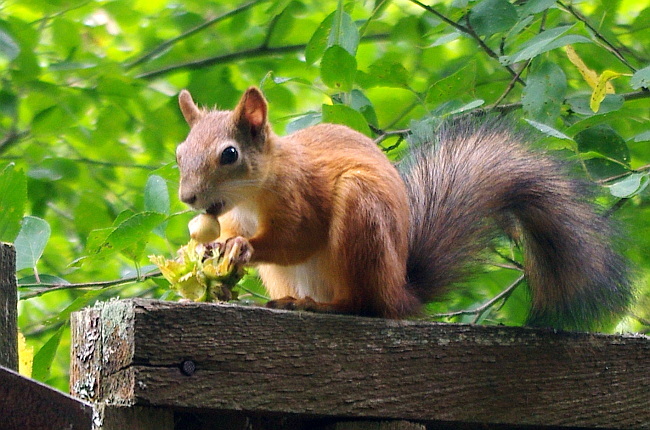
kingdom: Animalia
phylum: Chordata
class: Mammalia
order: Rodentia
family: Sciuridae
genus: Sciurus
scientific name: Sciurus vulgaris
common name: Eurasian red squirrel
